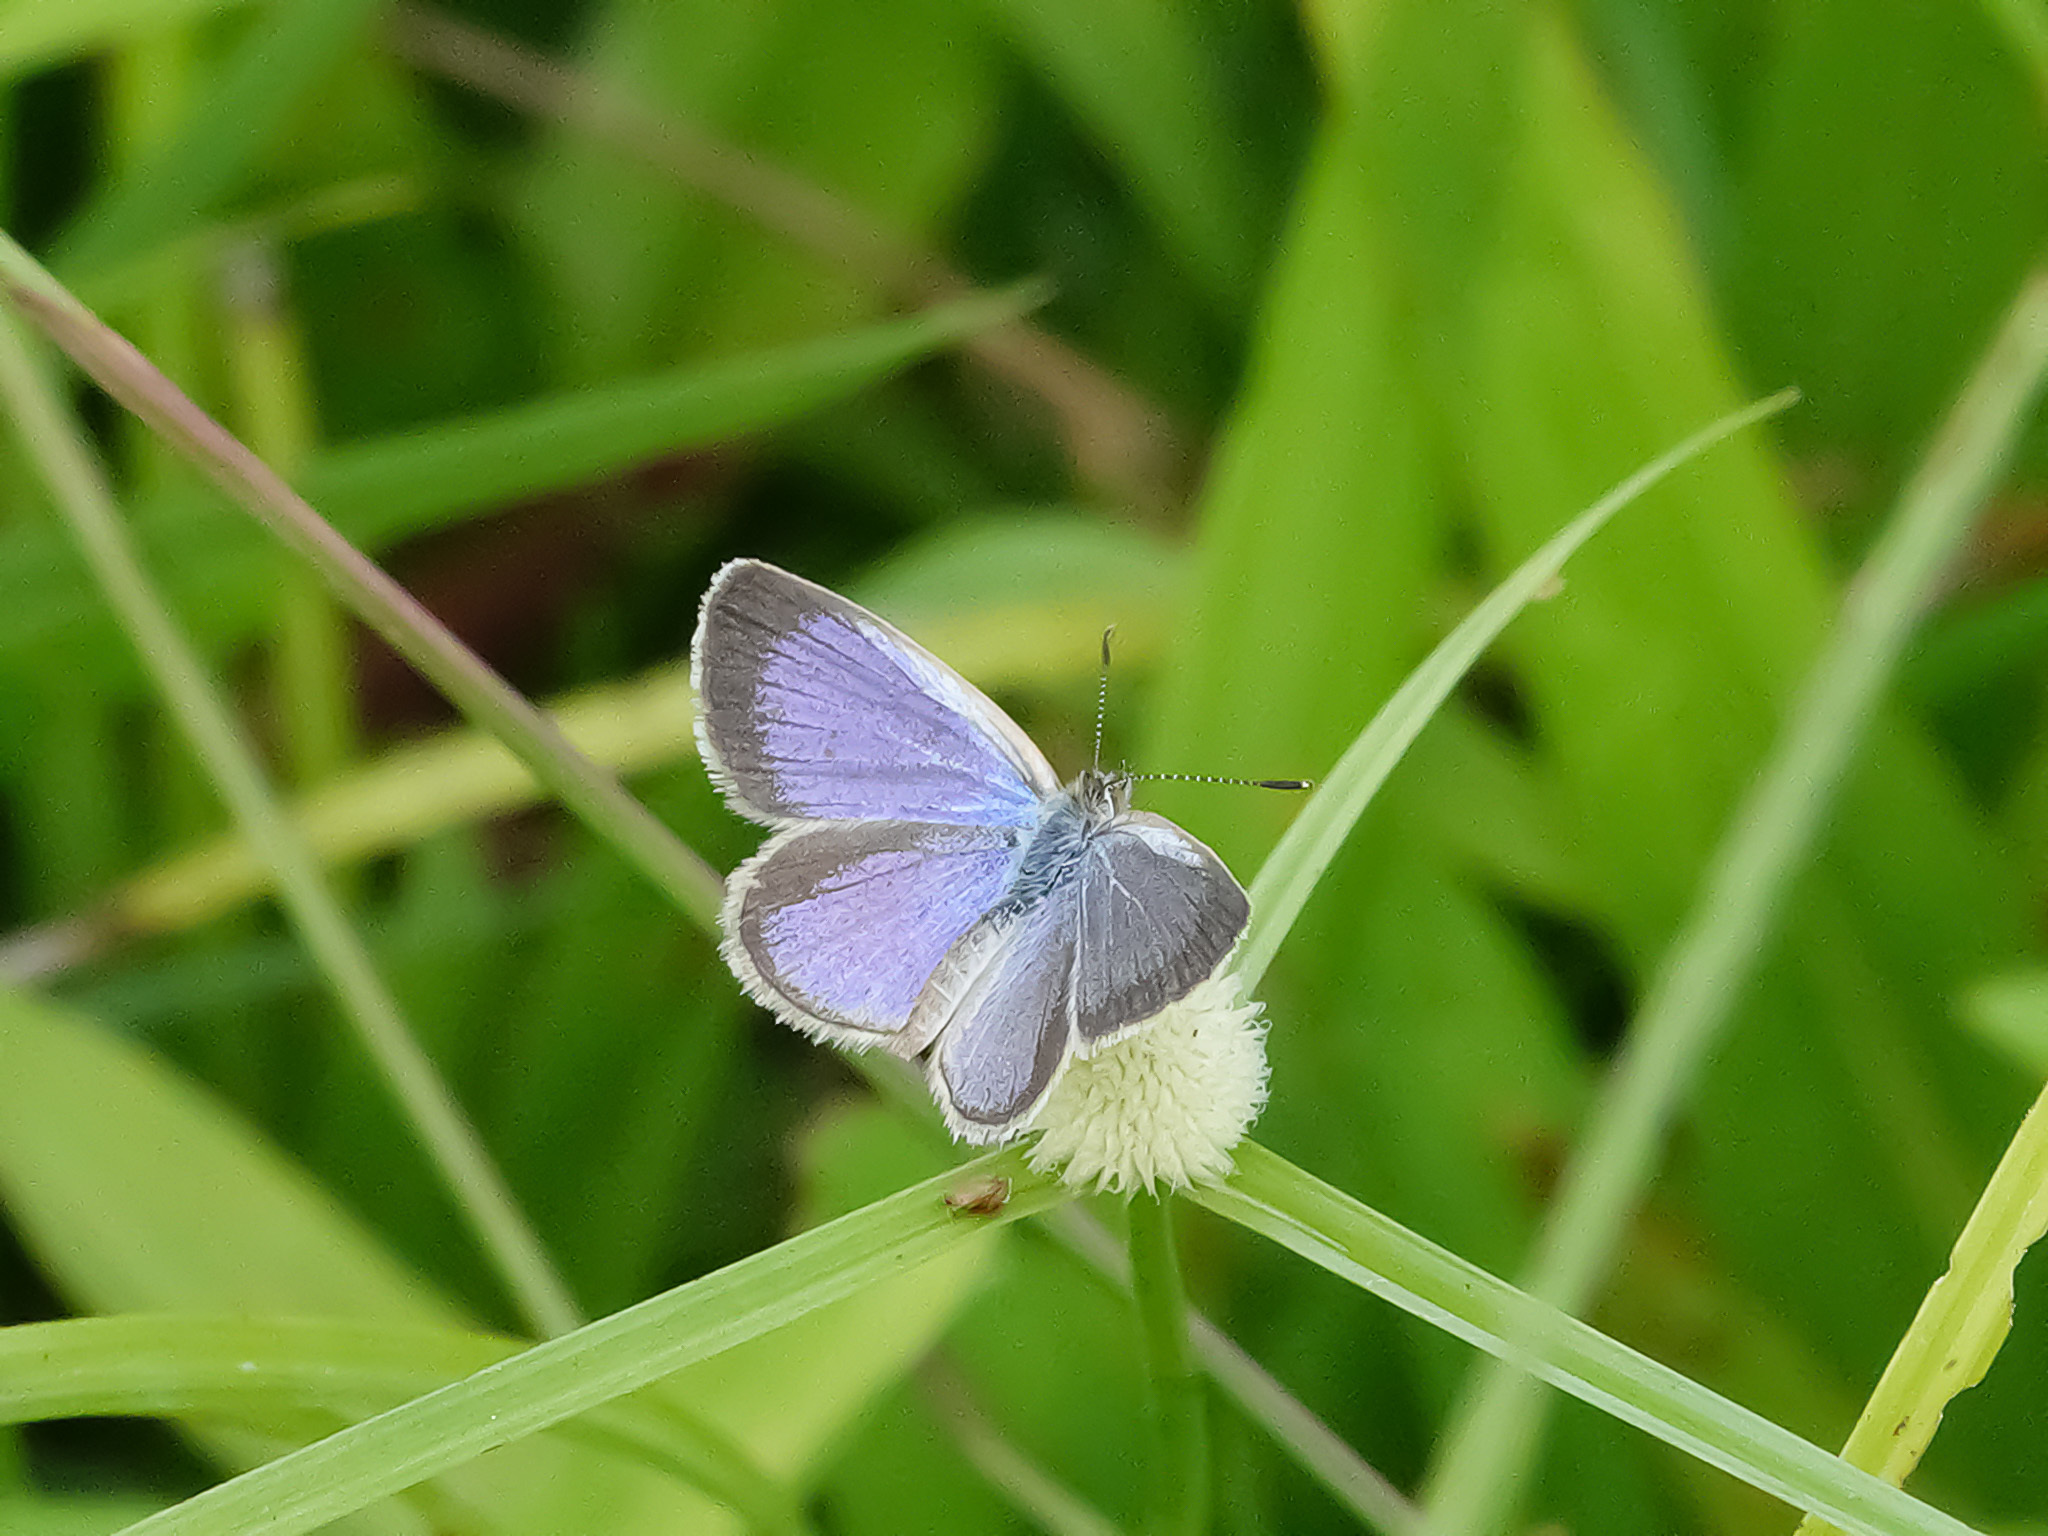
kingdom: Animalia
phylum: Arthropoda
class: Insecta
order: Lepidoptera
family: Lycaenidae
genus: Zizina
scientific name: Zizina otis
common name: Lesser grass blue
